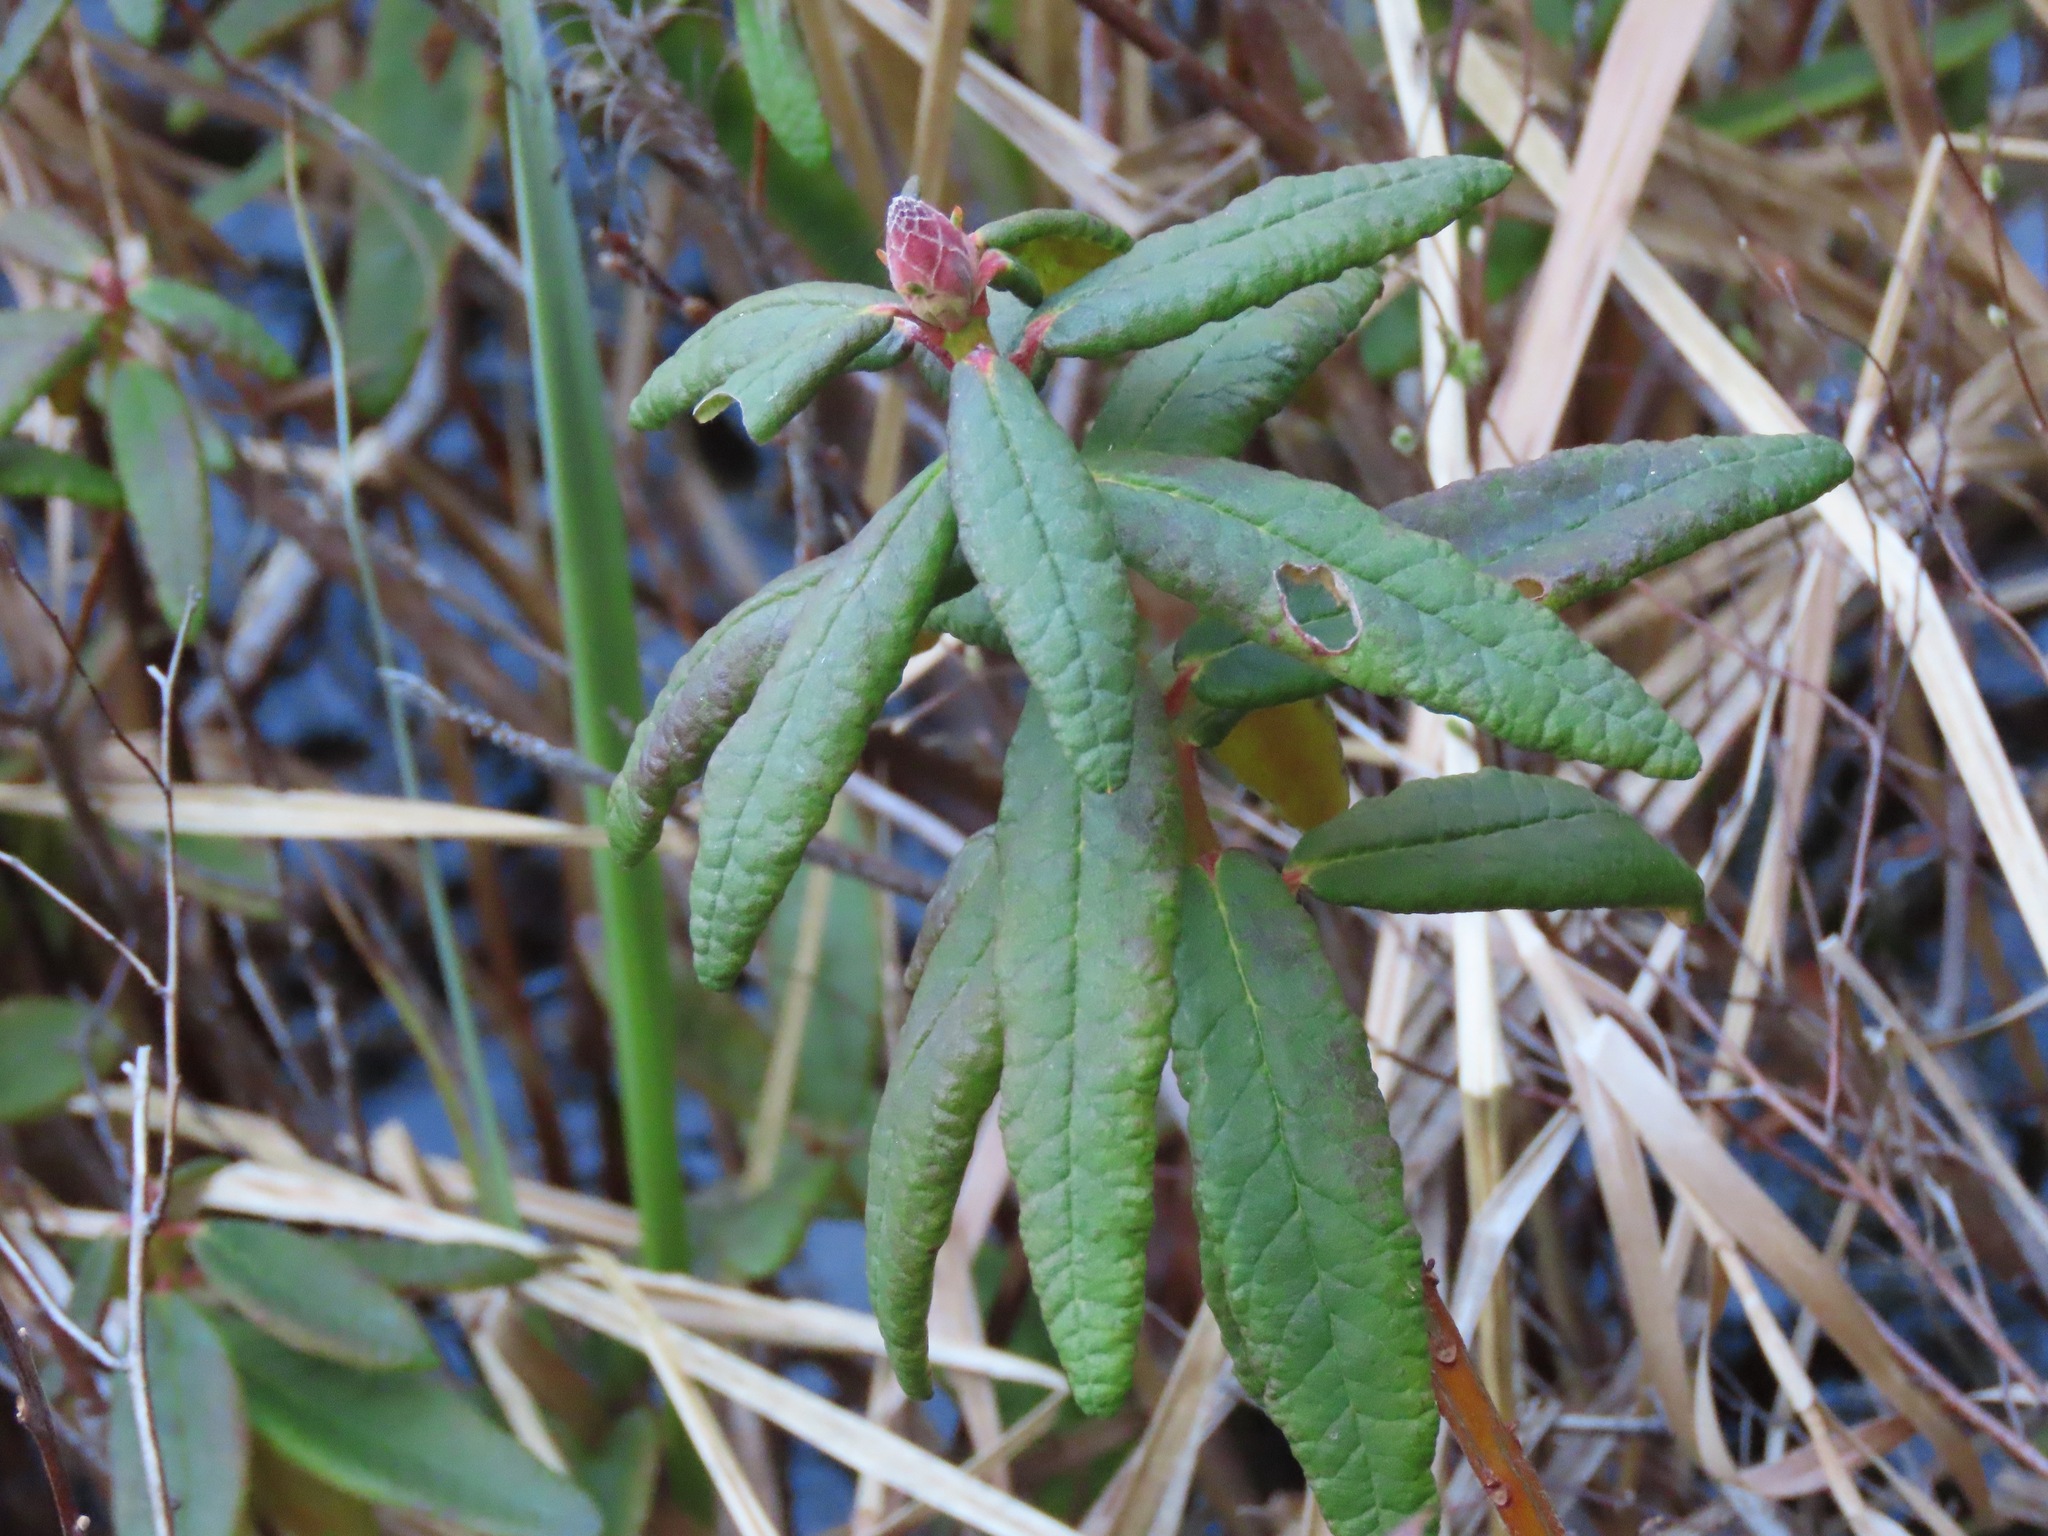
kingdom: Plantae
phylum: Tracheophyta
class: Magnoliopsida
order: Ericales
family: Ericaceae
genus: Rhododendron
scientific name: Rhododendron groenlandicum
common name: Bog labrador tea
